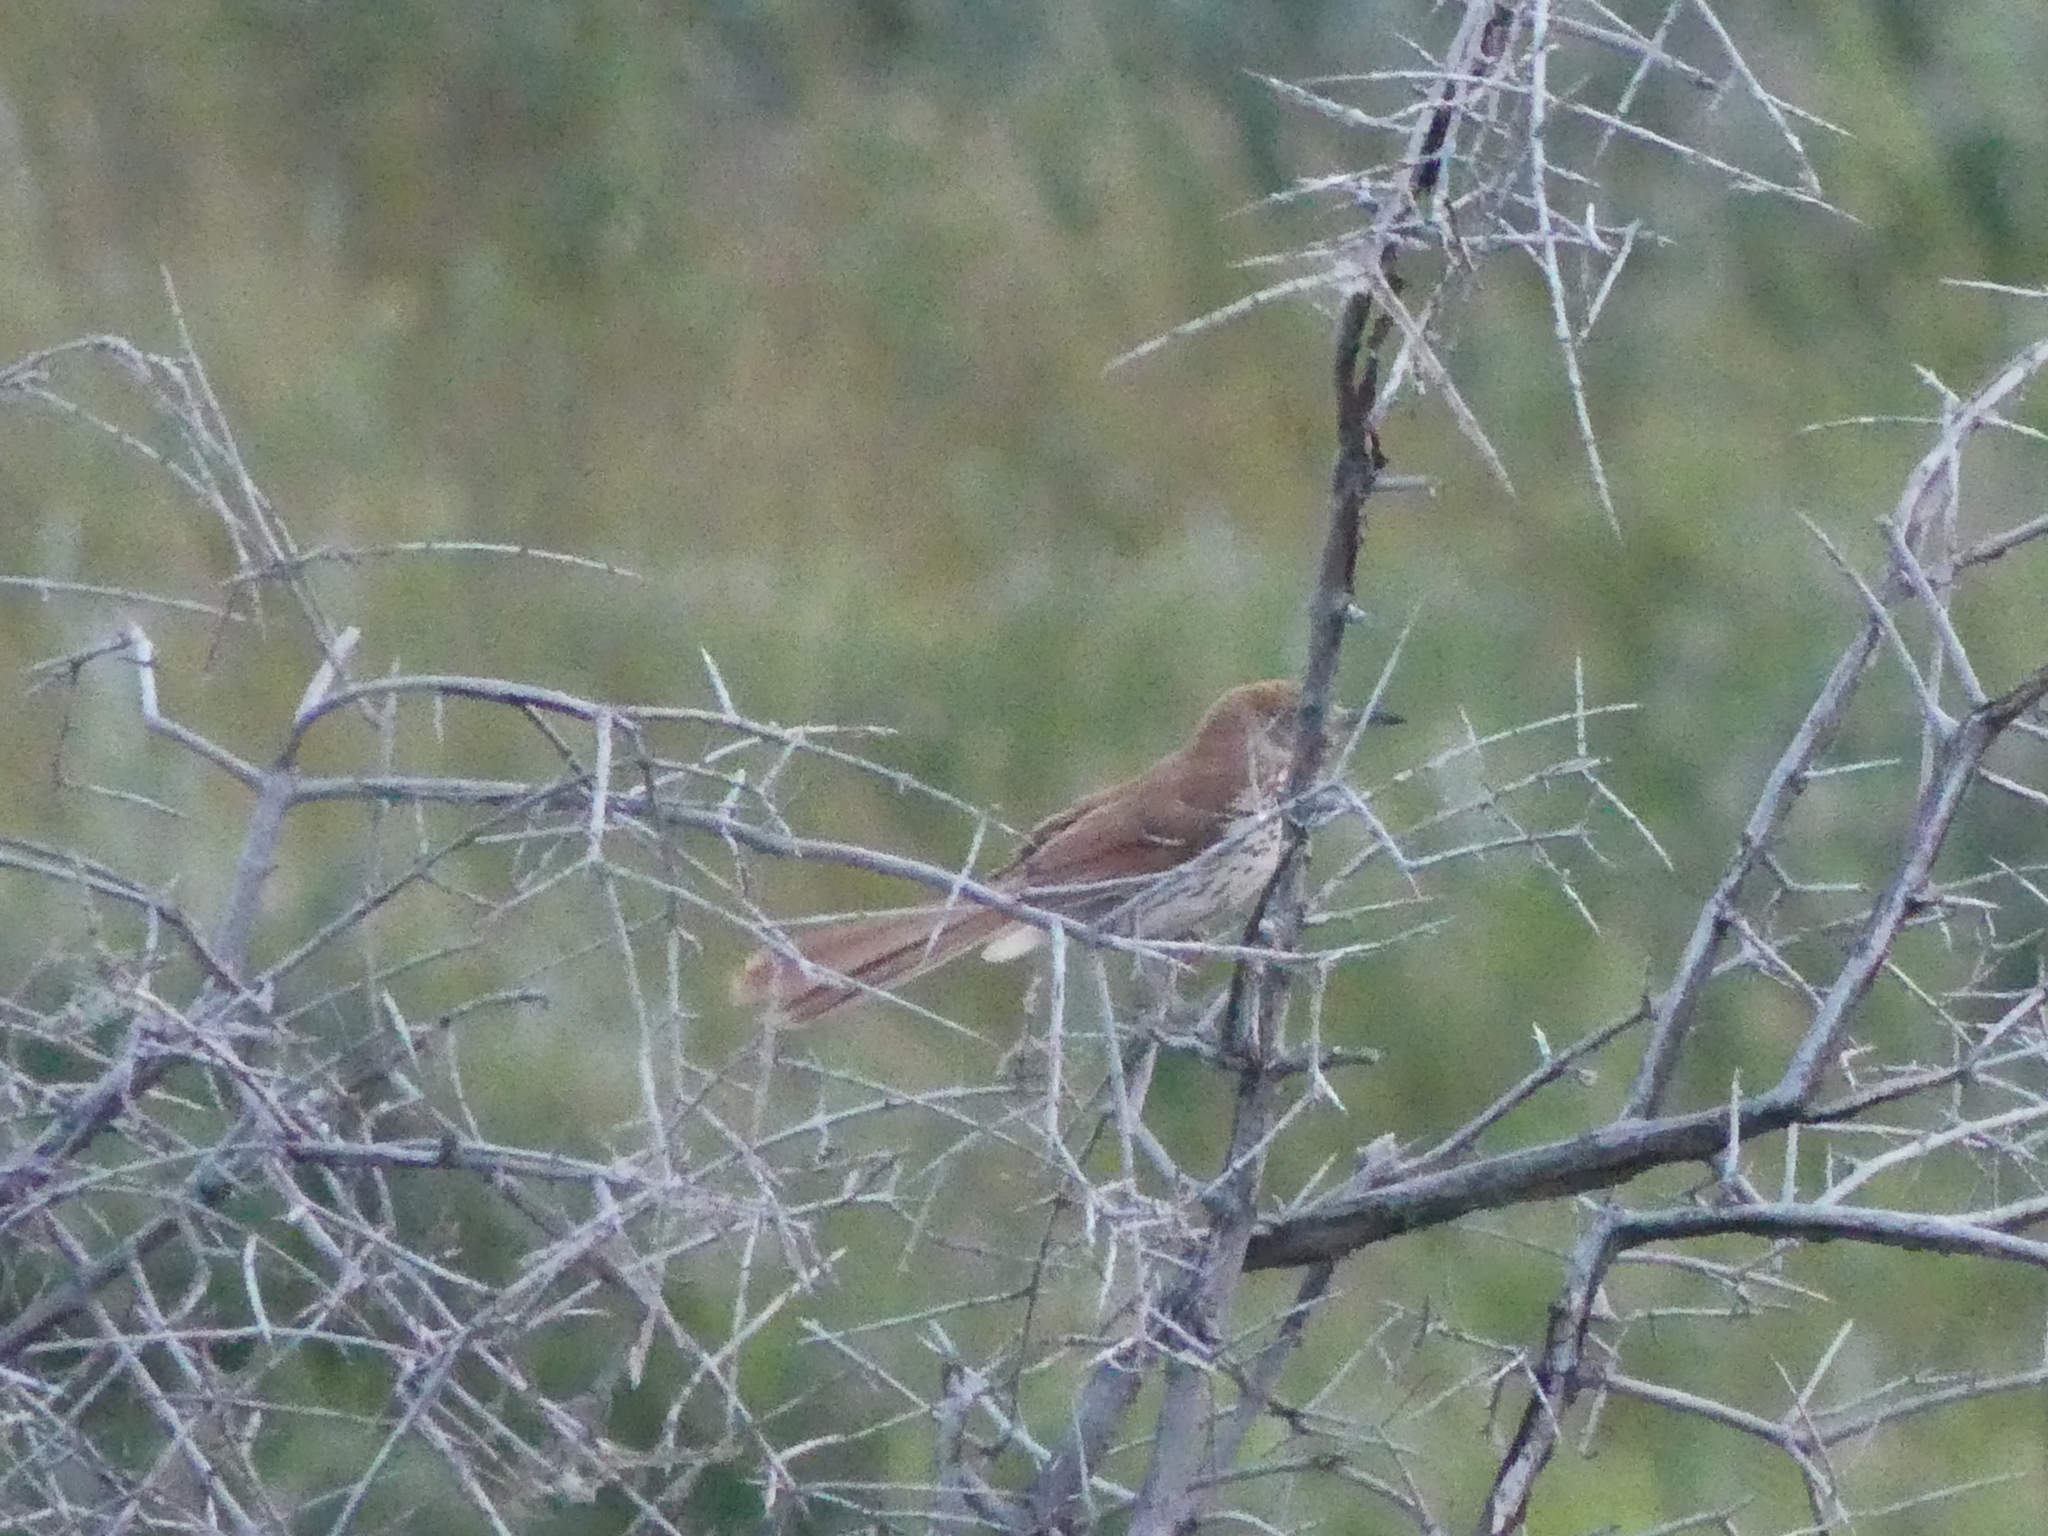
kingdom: Animalia
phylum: Chordata
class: Aves
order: Passeriformes
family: Mimidae
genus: Toxostoma
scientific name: Toxostoma rufum
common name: Brown thrasher
